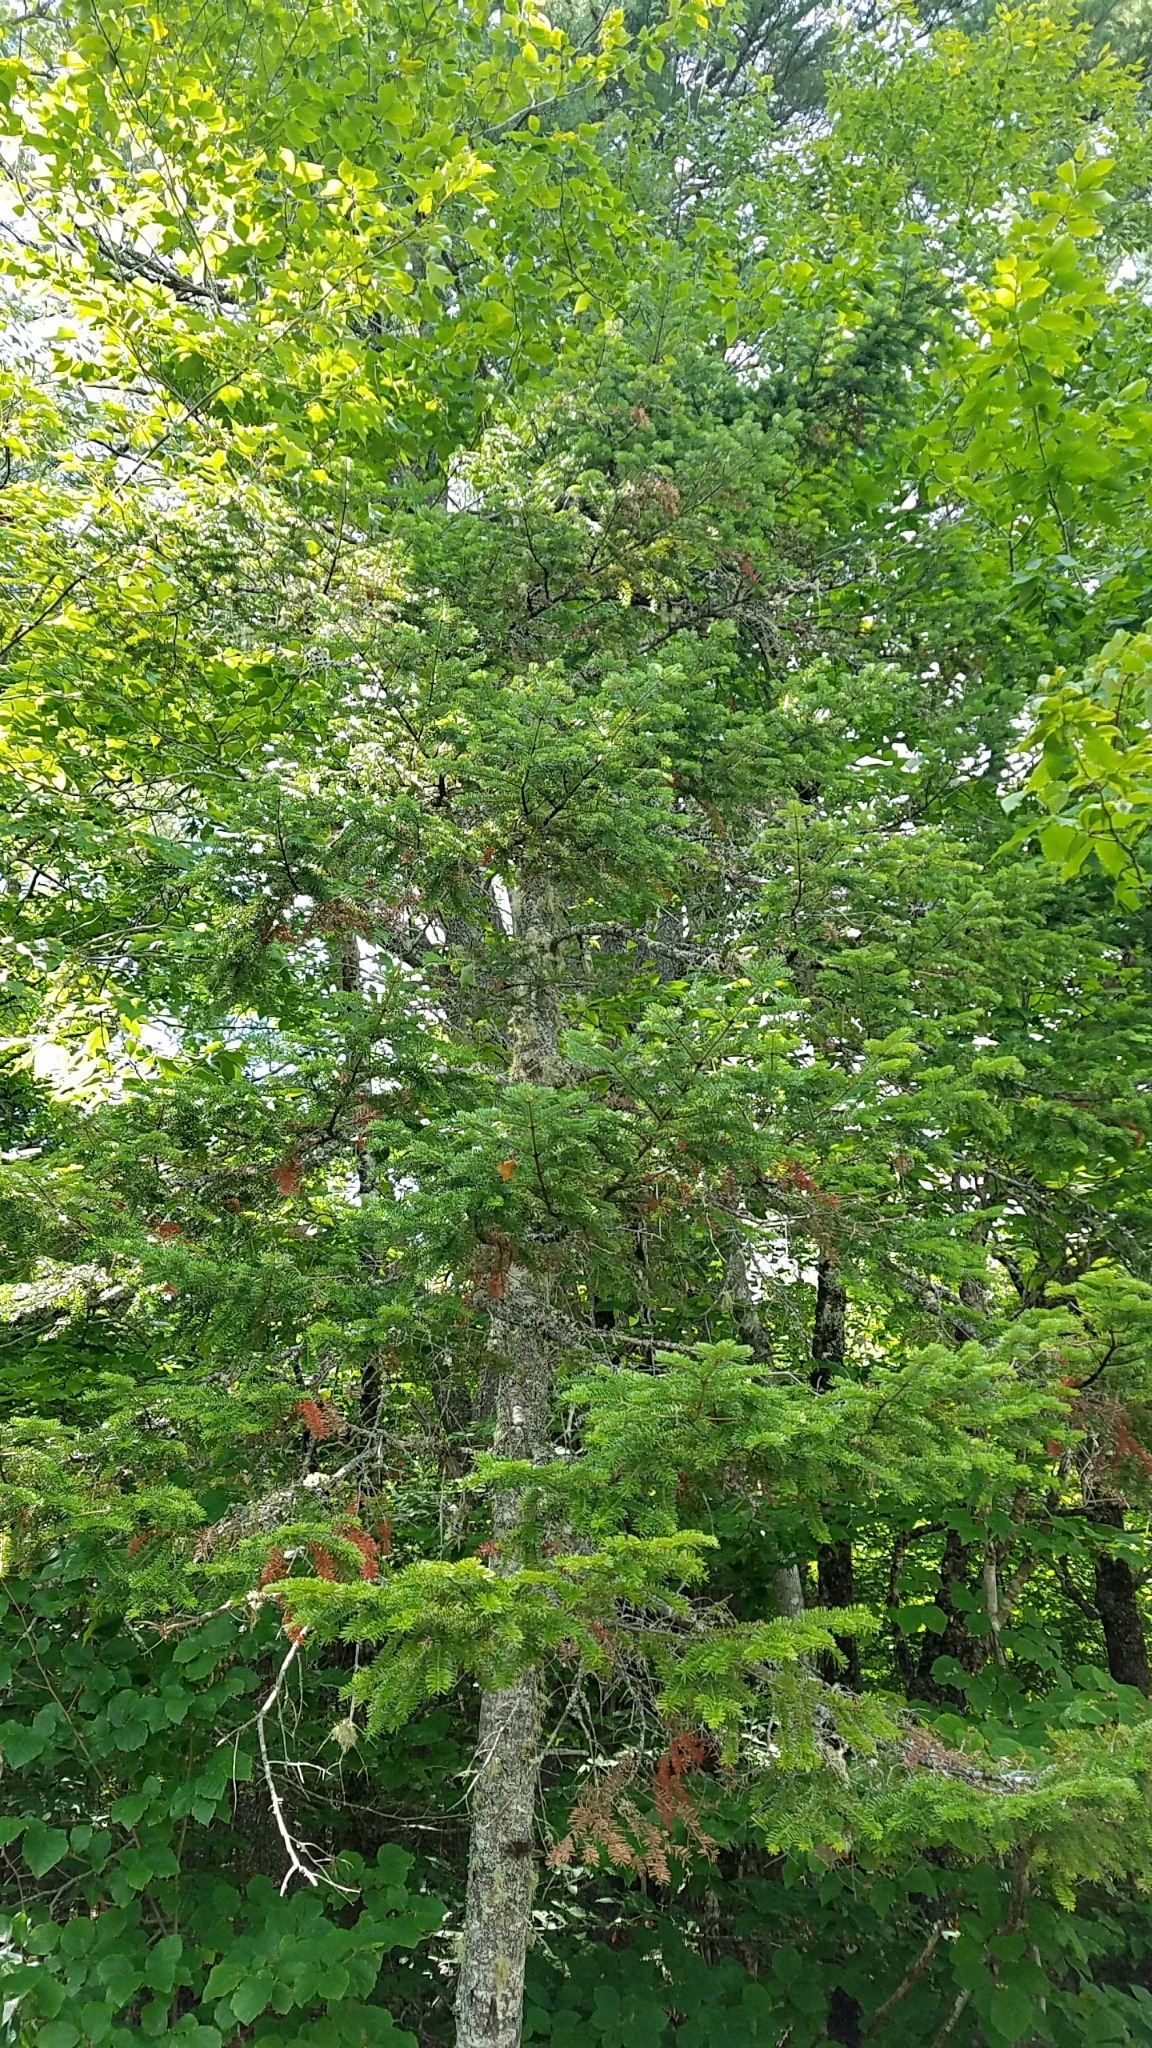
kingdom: Plantae
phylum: Tracheophyta
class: Pinopsida
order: Pinales
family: Pinaceae
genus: Abies
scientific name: Abies balsamea
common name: Balsam fir
